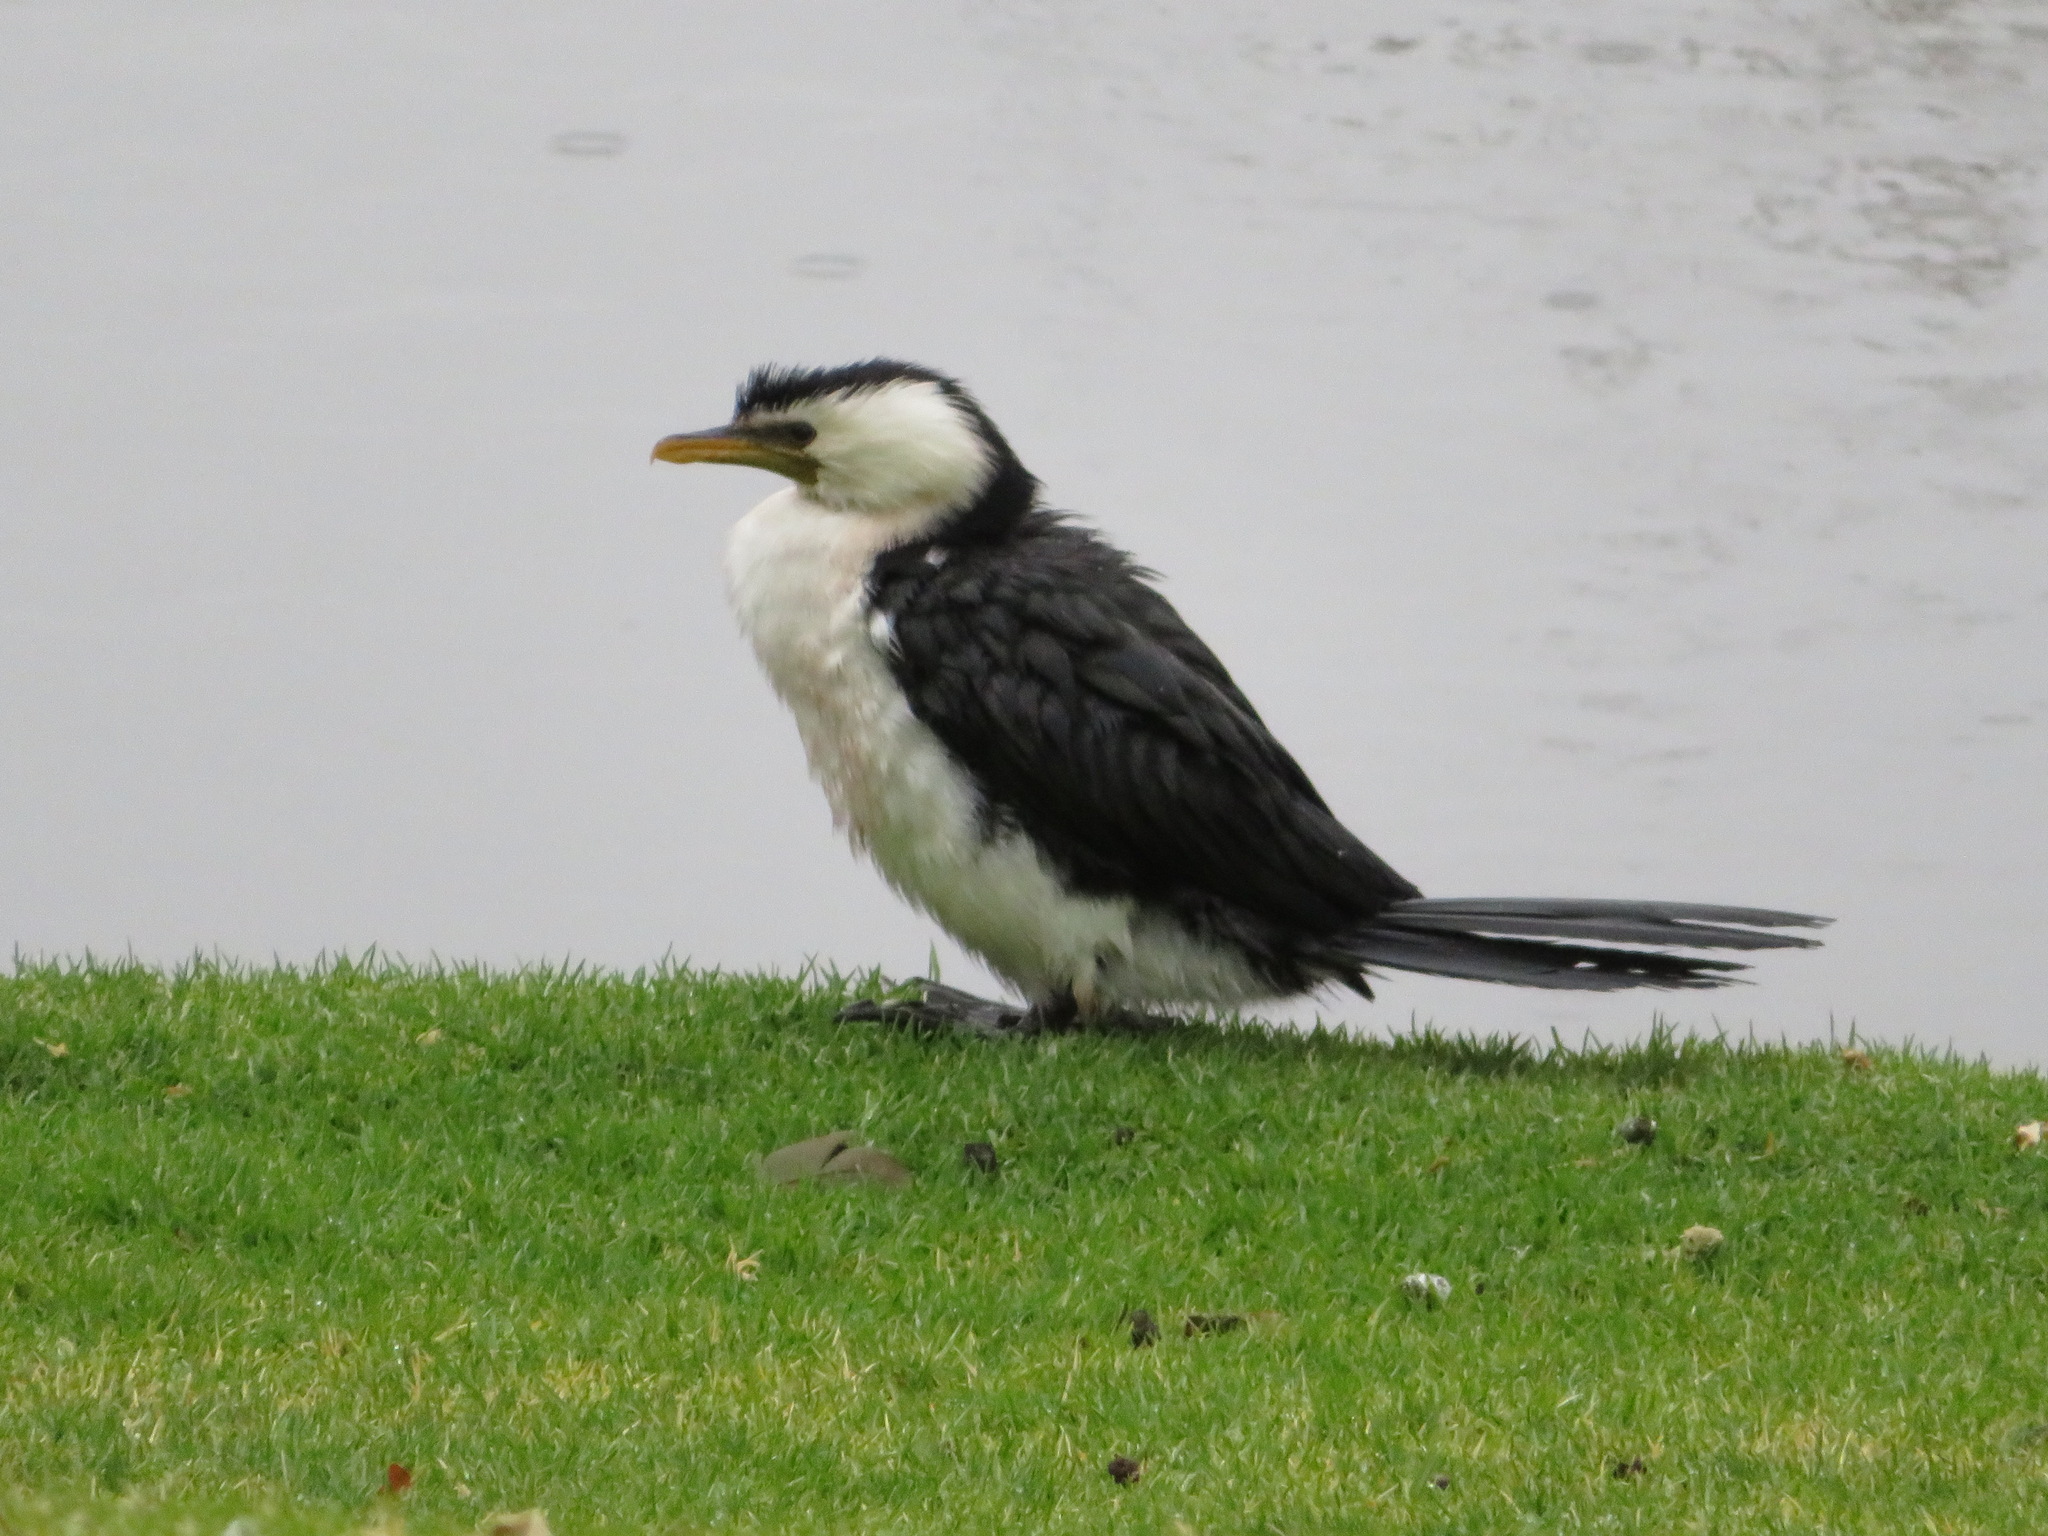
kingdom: Animalia
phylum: Chordata
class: Aves
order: Suliformes
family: Phalacrocoracidae
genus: Microcarbo
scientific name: Microcarbo melanoleucos
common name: Little pied cormorant
